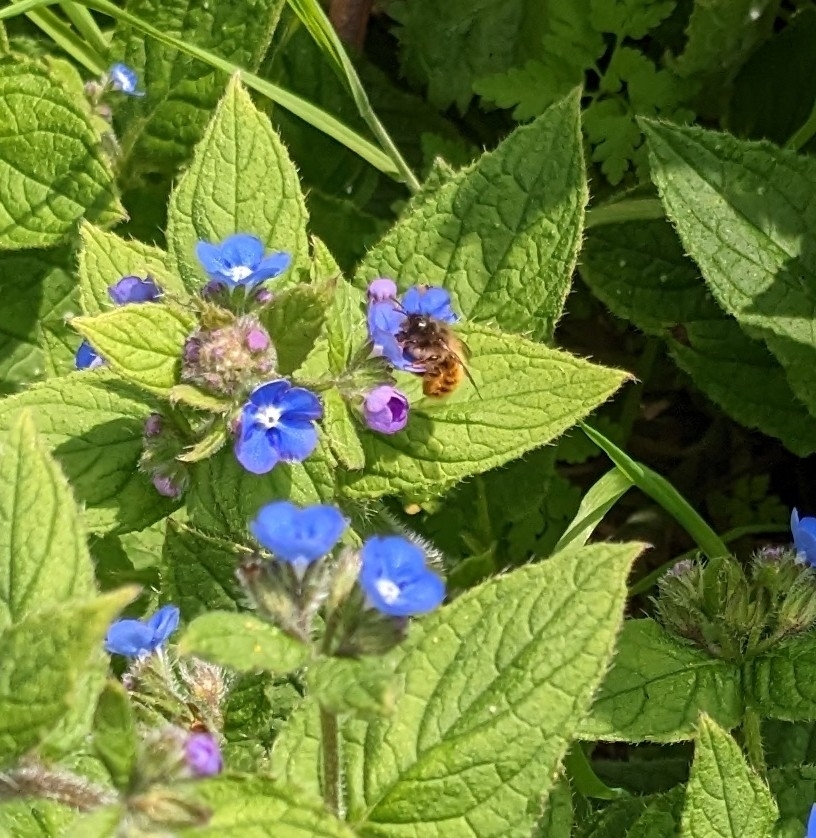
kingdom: Animalia
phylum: Arthropoda
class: Insecta
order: Hymenoptera
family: Megachilidae
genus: Osmia
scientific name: Osmia bicornis
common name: Red mason bee
